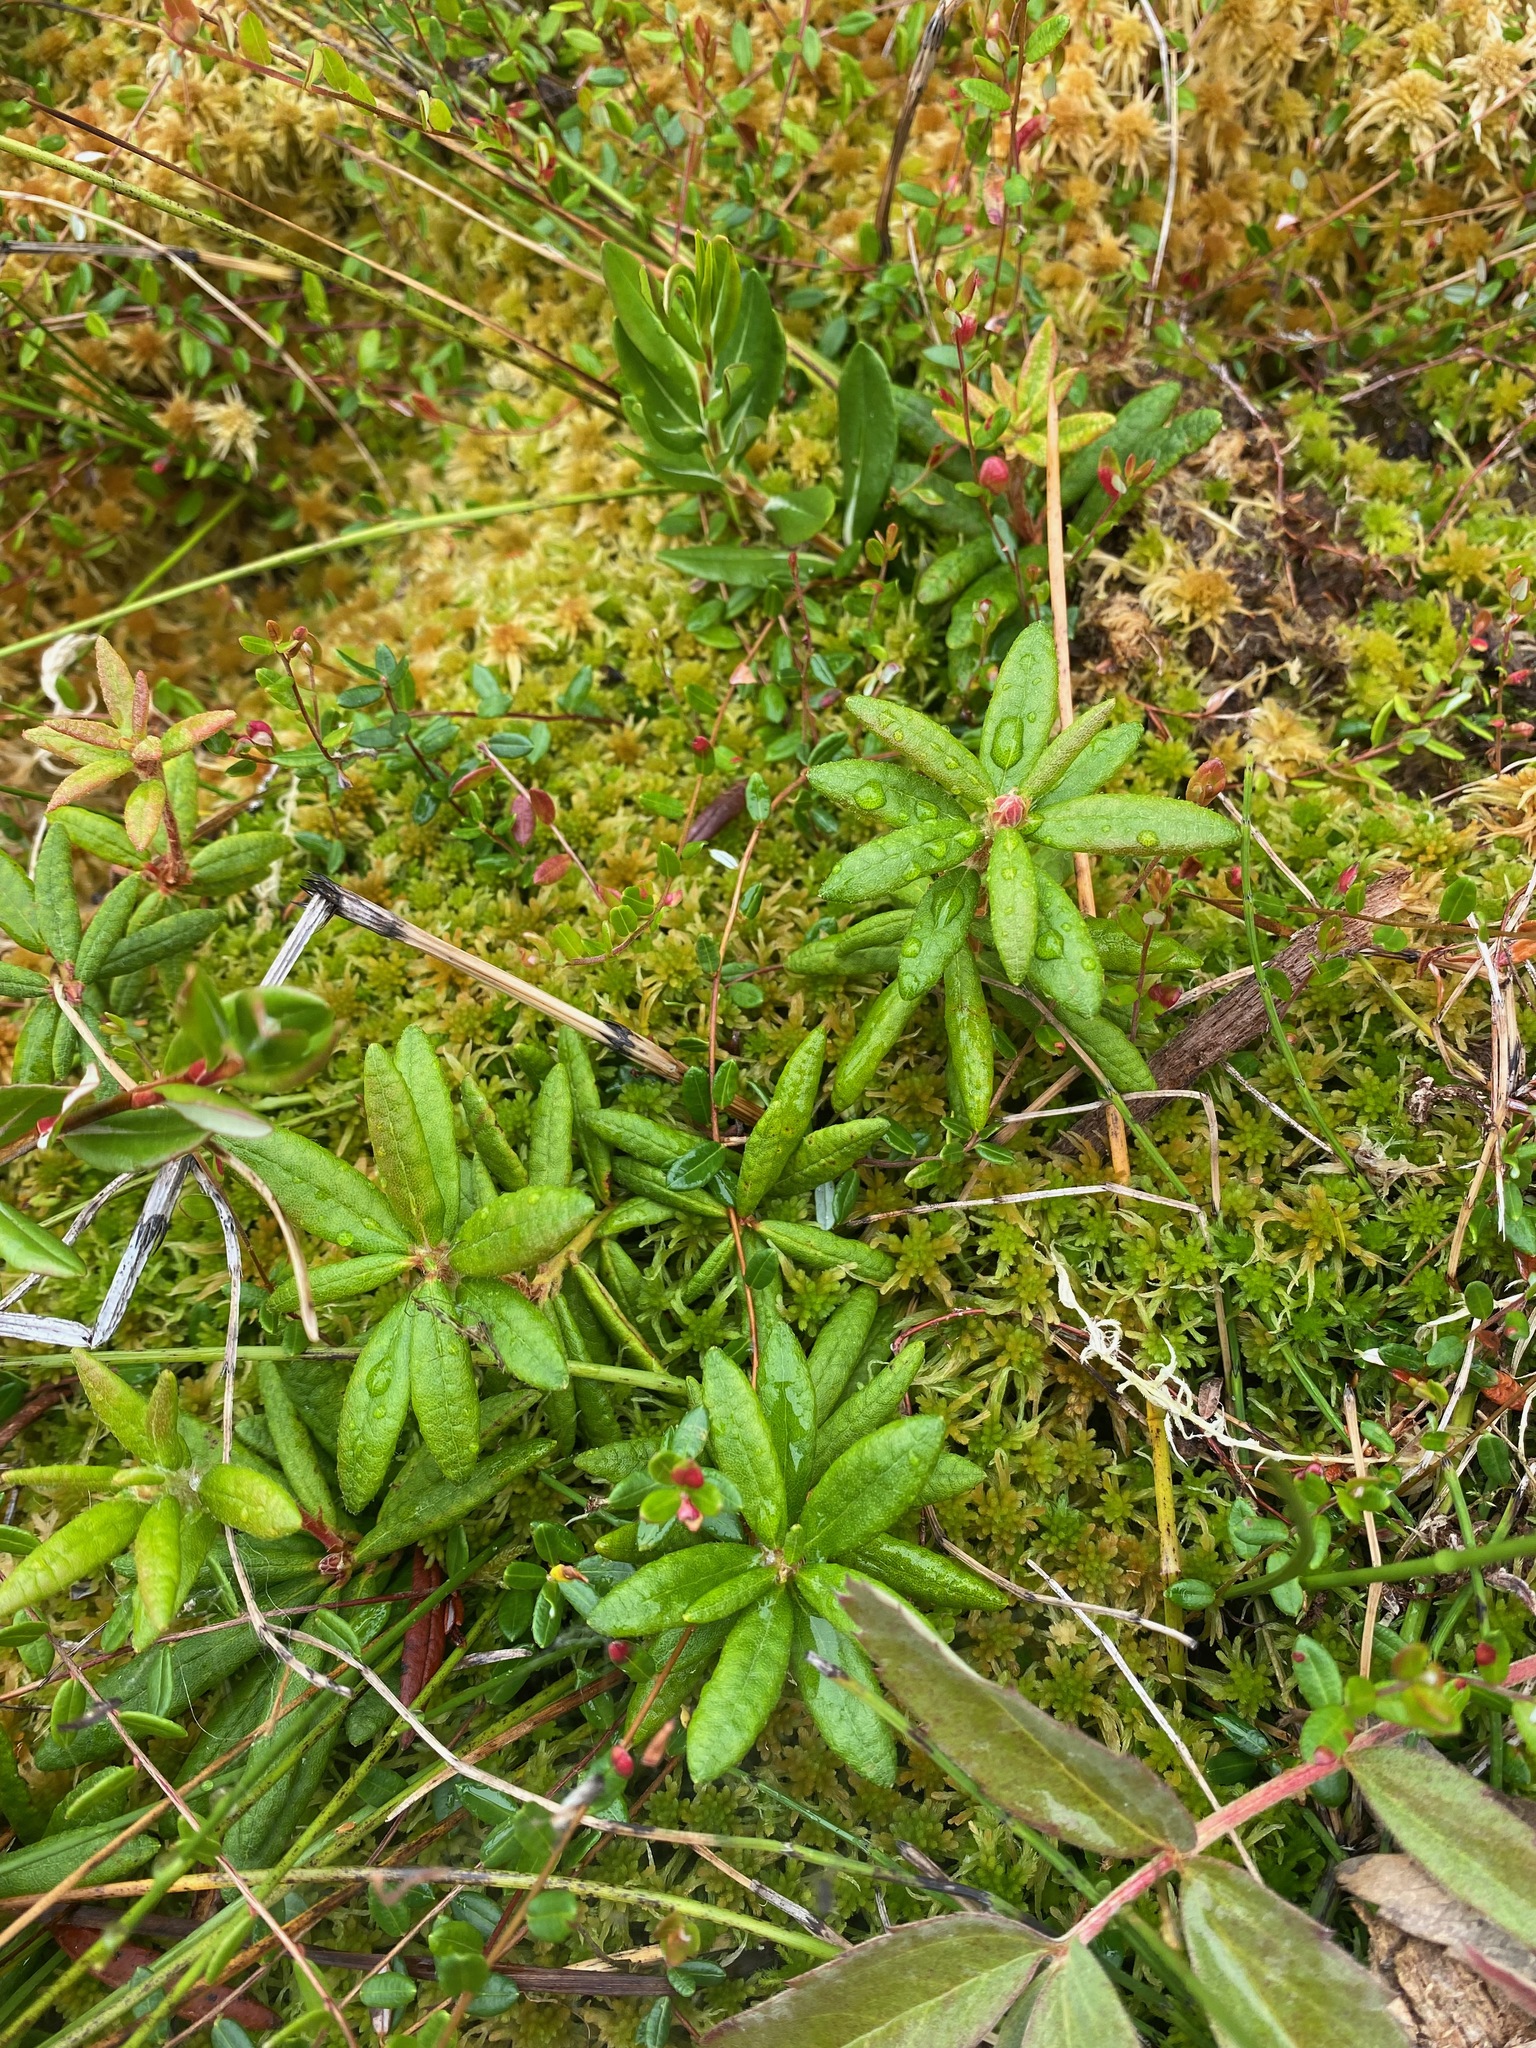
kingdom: Plantae
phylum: Tracheophyta
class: Magnoliopsida
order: Ericales
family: Ericaceae
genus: Rhododendron
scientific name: Rhododendron groenlandicum
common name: Bog labrador tea
